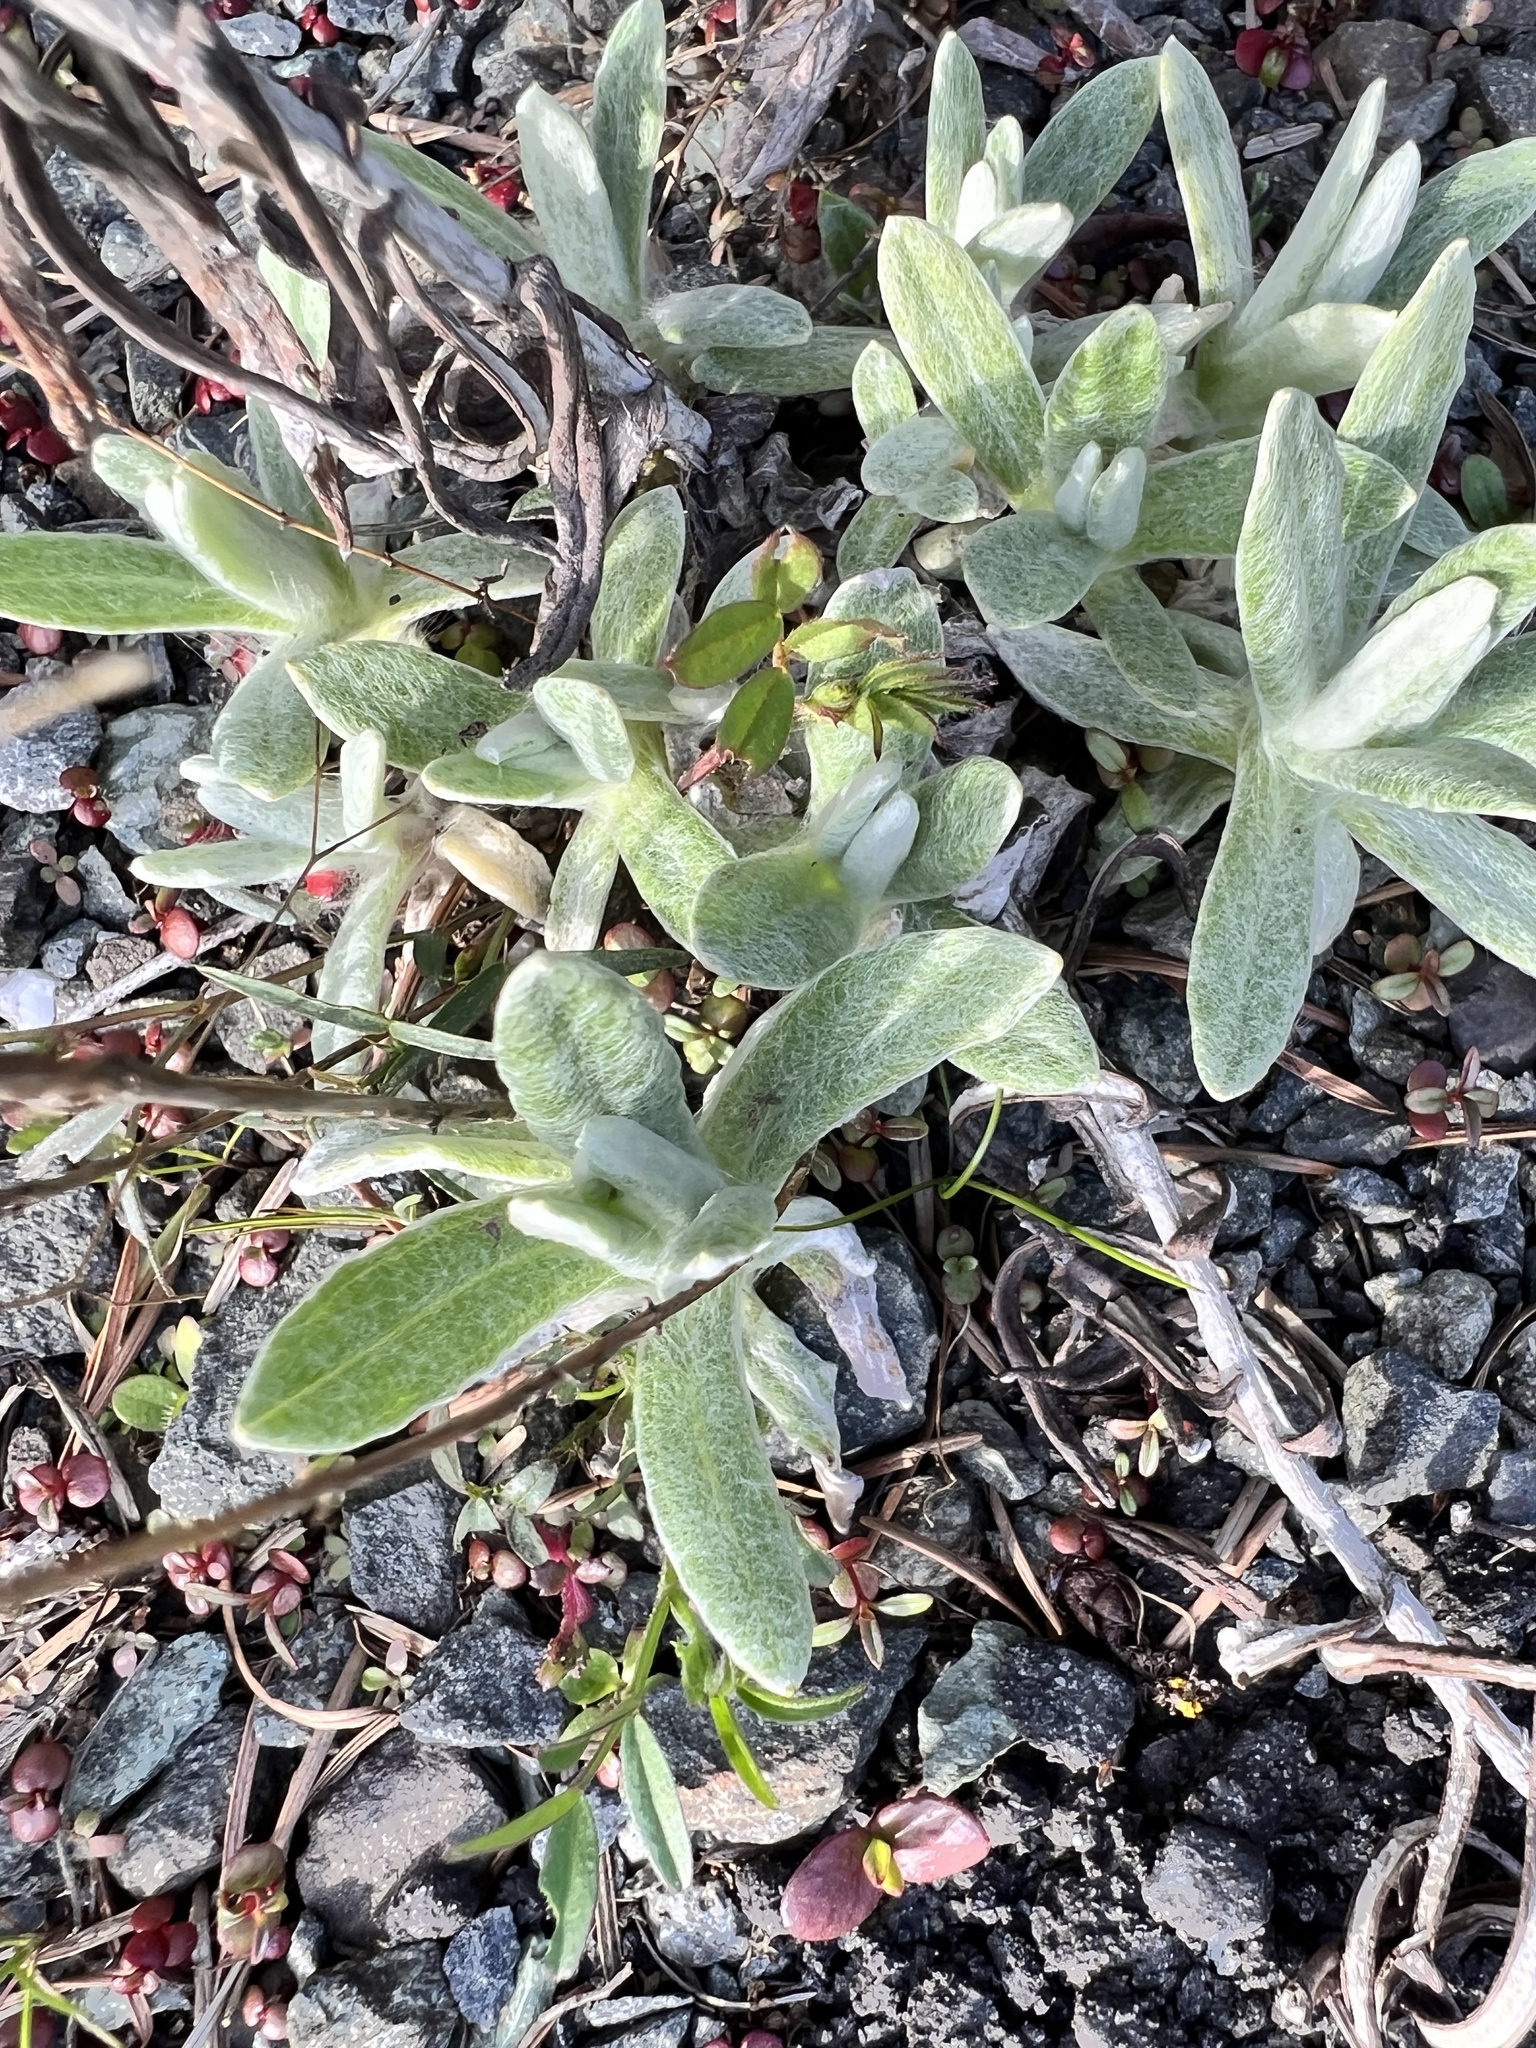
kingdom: Plantae
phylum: Tracheophyta
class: Magnoliopsida
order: Asterales
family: Asteraceae
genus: Anaphalis
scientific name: Anaphalis margaritacea
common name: Pearly everlasting
